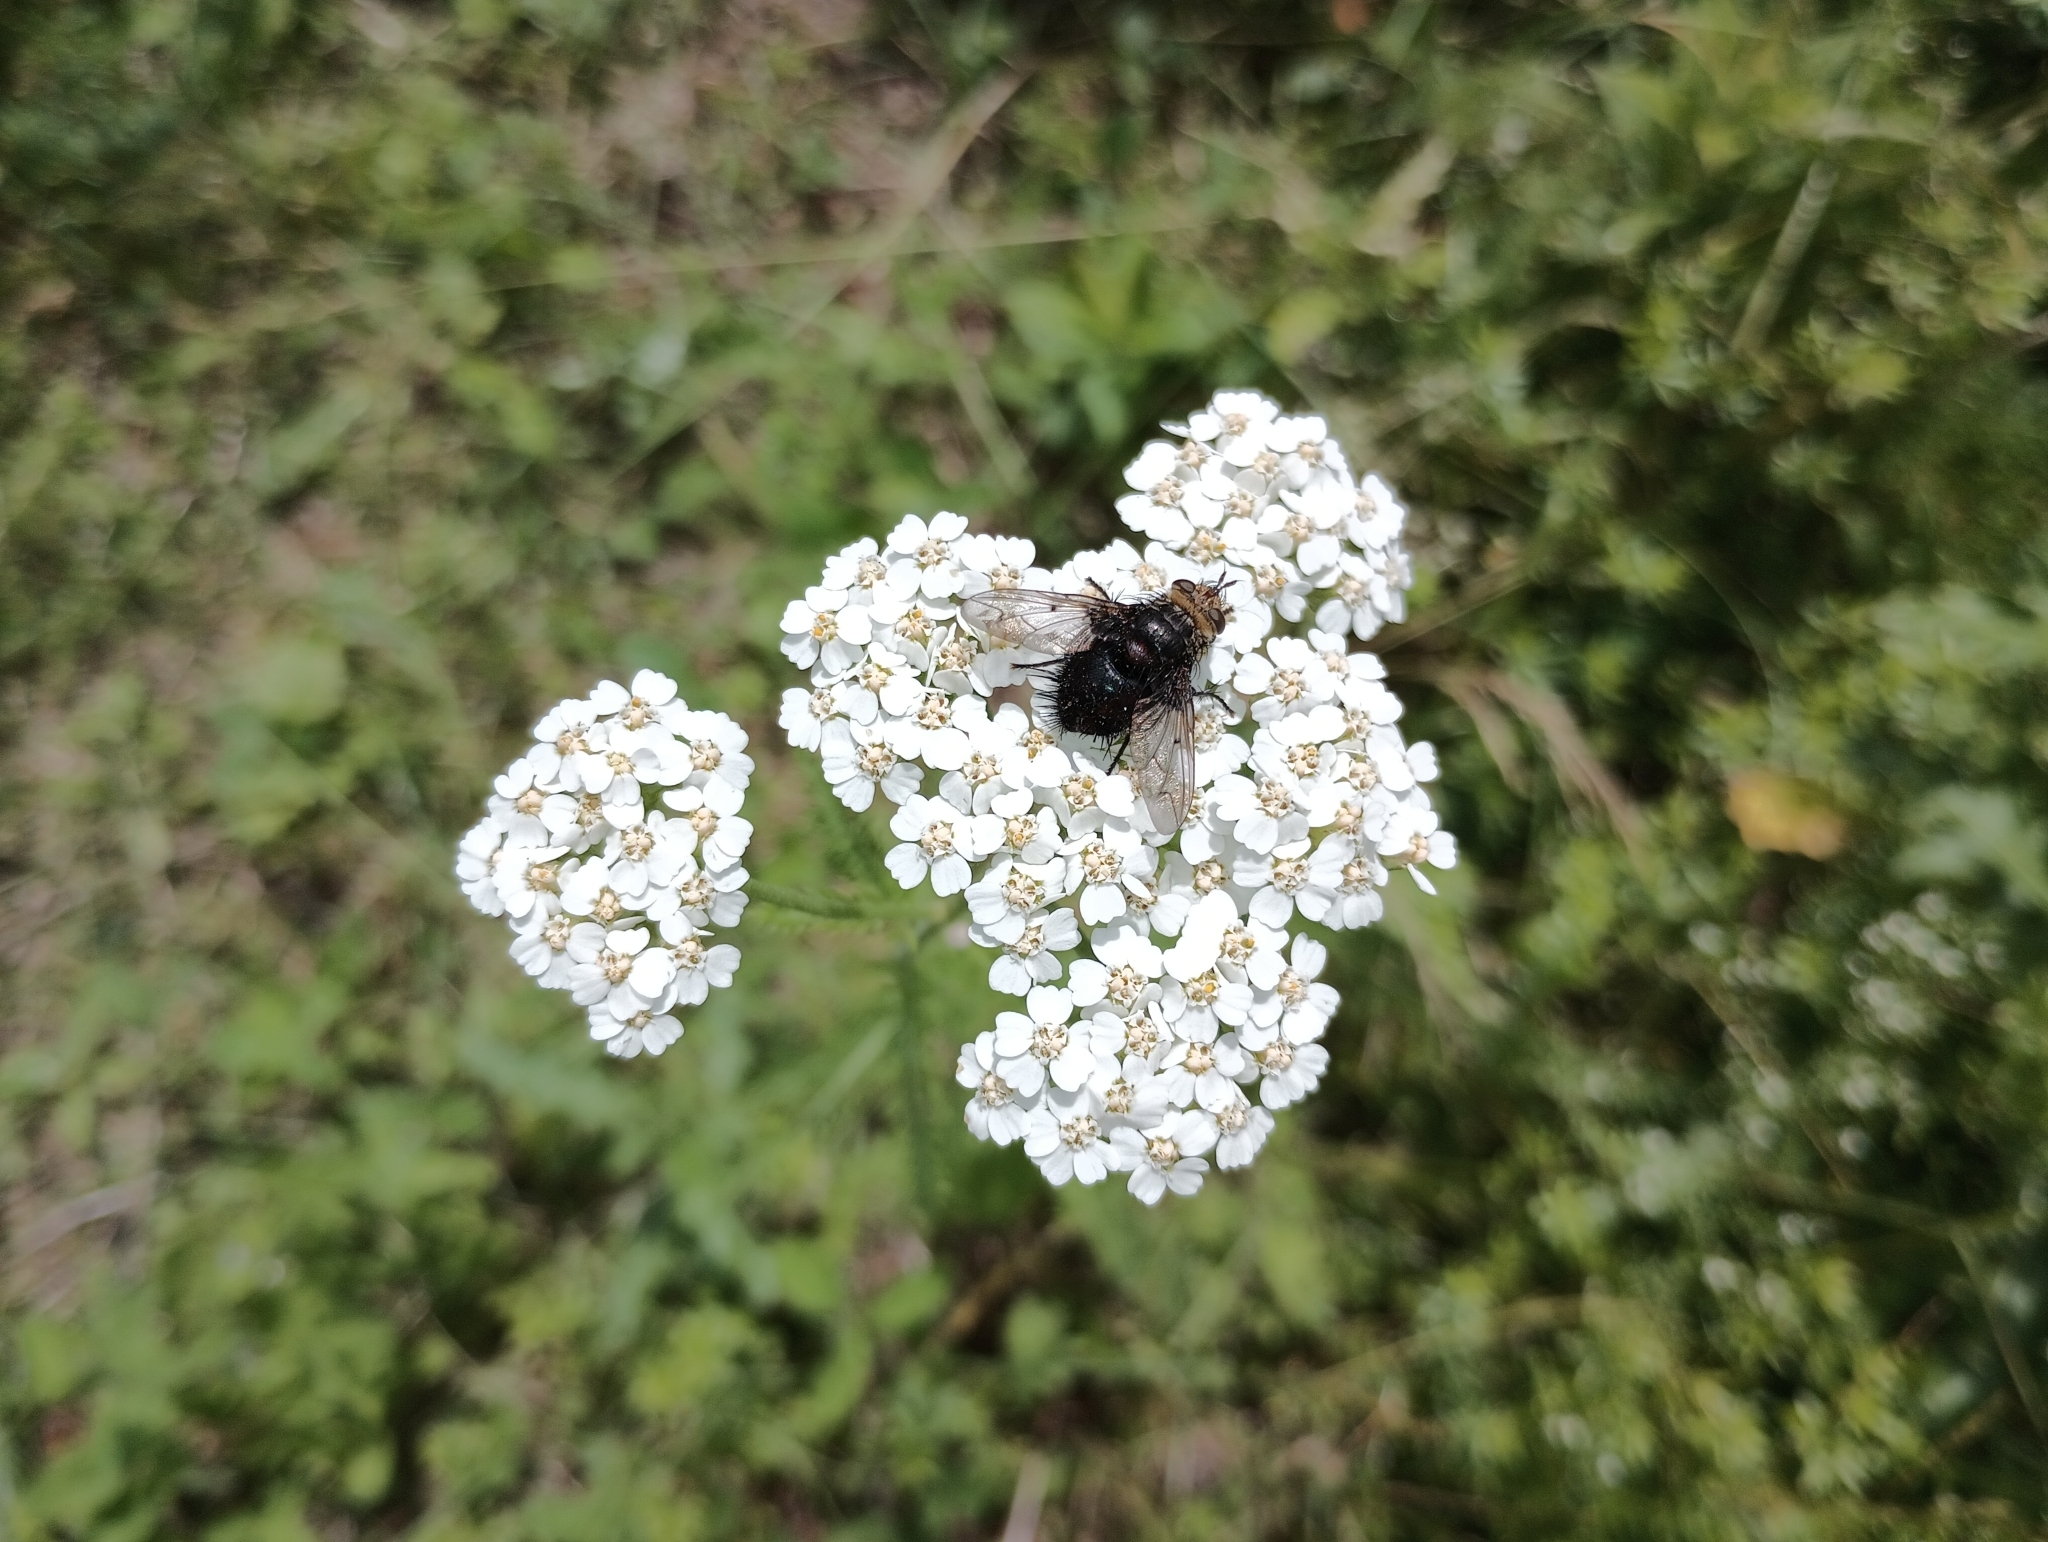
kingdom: Plantae
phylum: Tracheophyta
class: Magnoliopsida
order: Asterales
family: Asteraceae
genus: Achillea
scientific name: Achillea millefolium
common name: Yarrow
